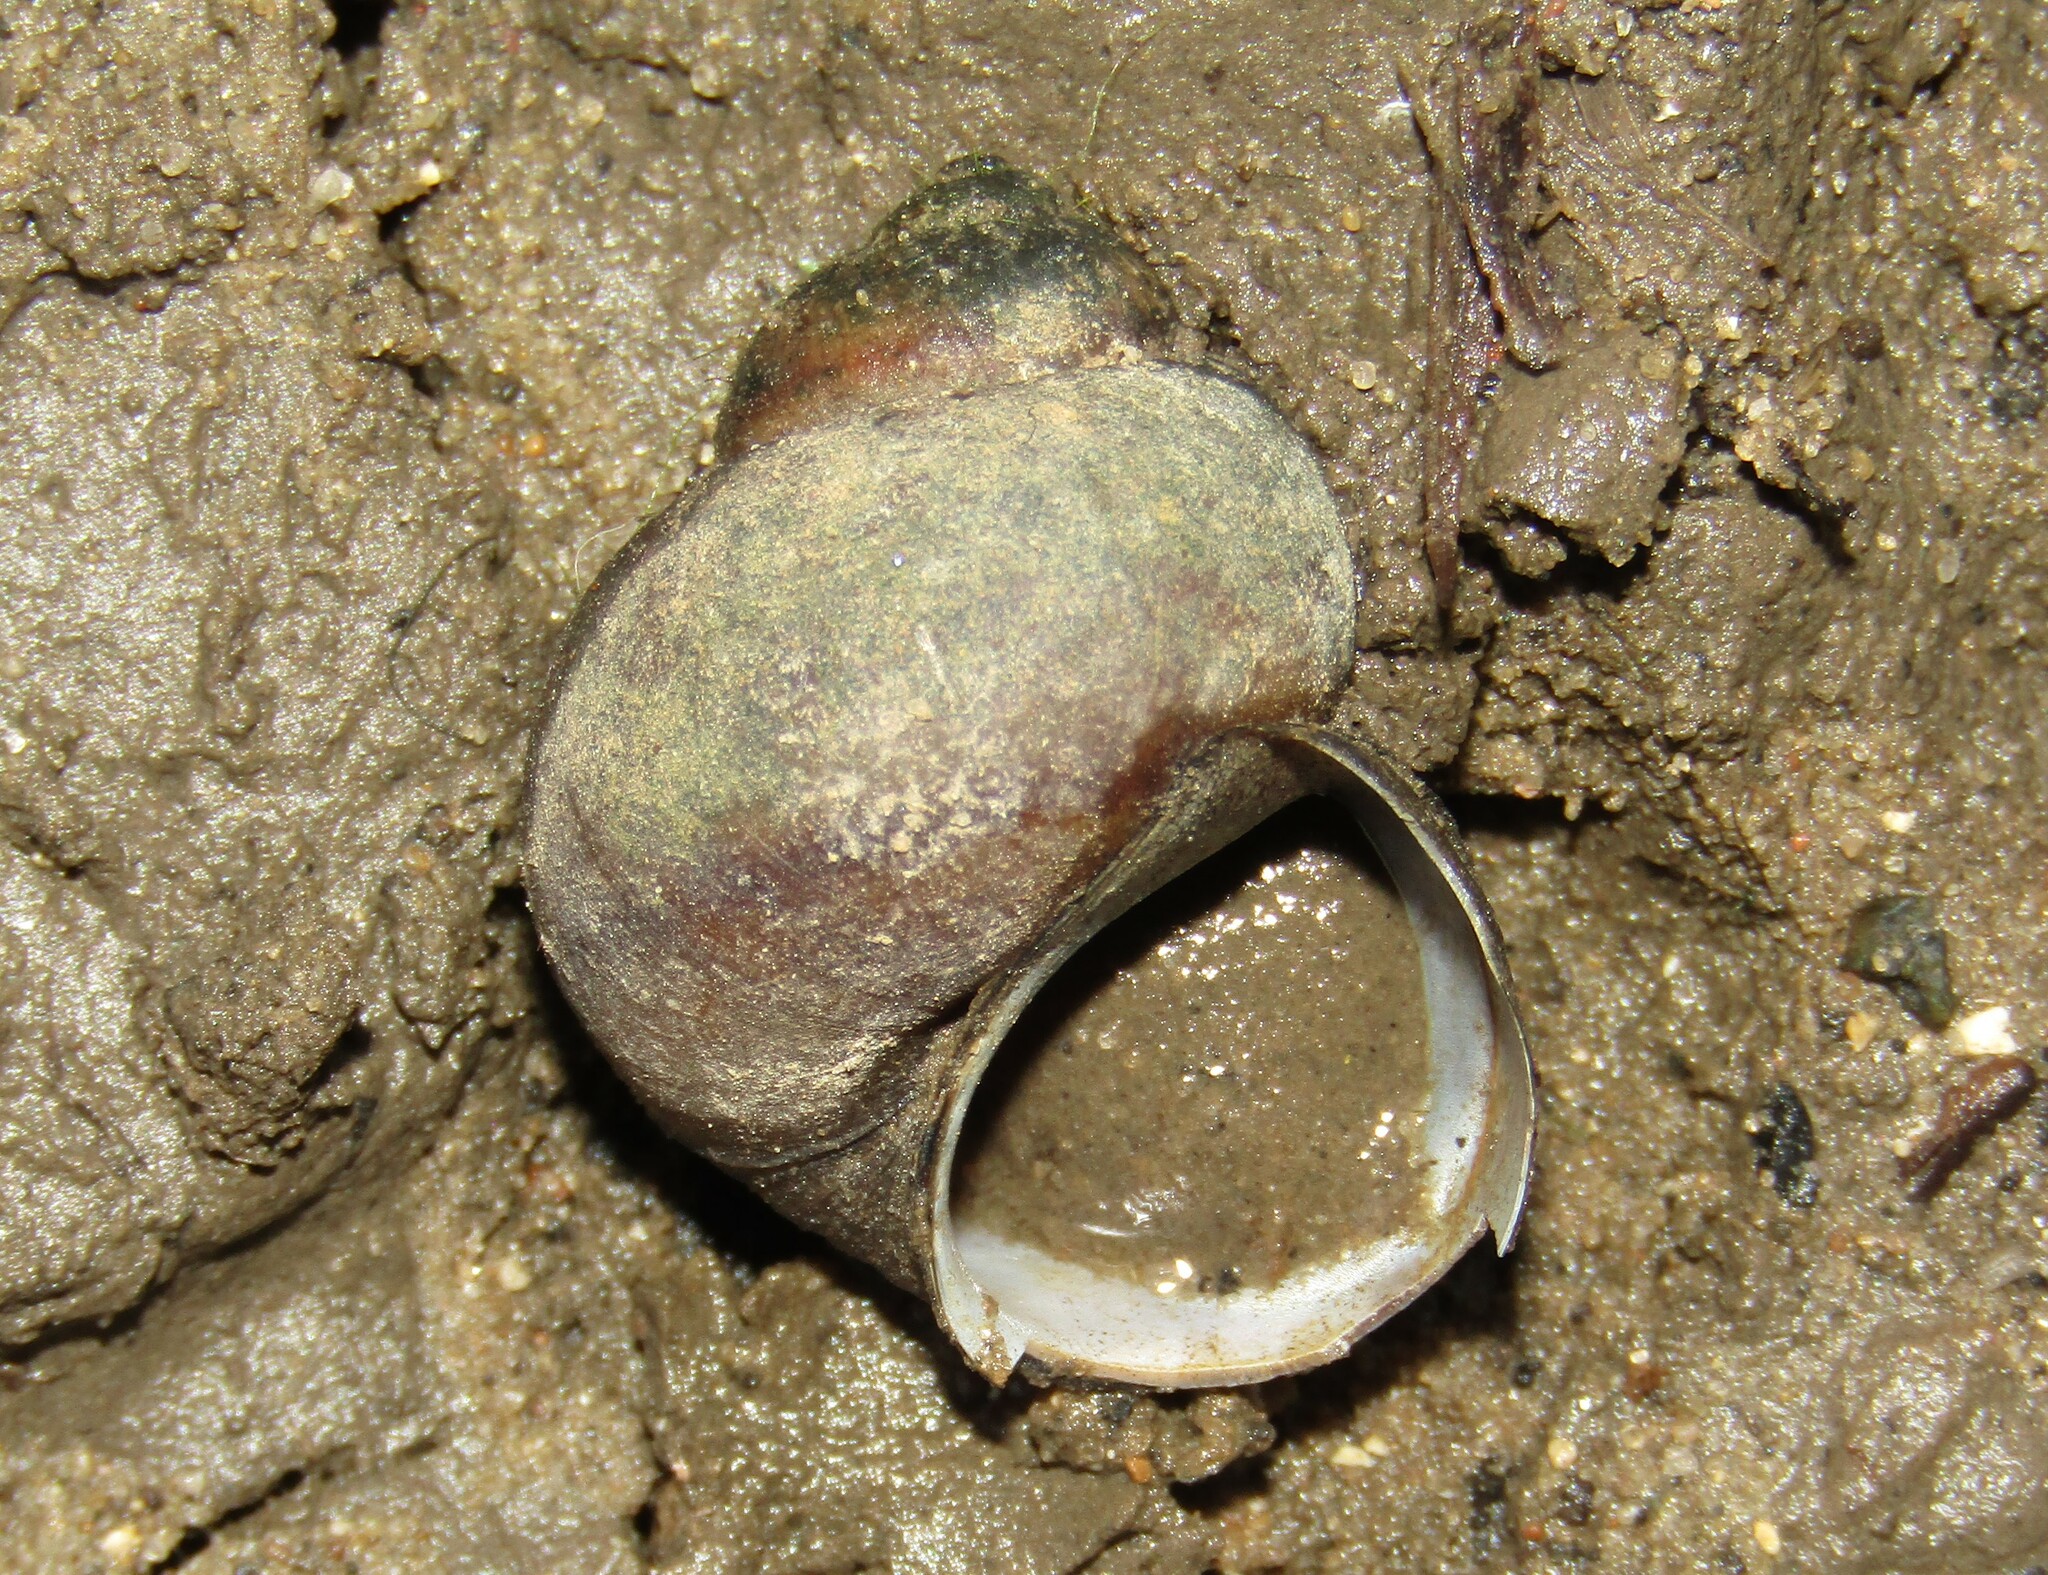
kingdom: Animalia
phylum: Mollusca
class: Gastropoda
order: Architaenioglossa
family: Viviparidae
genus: Viviparus
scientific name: Viviparus viviparus
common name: River snail
